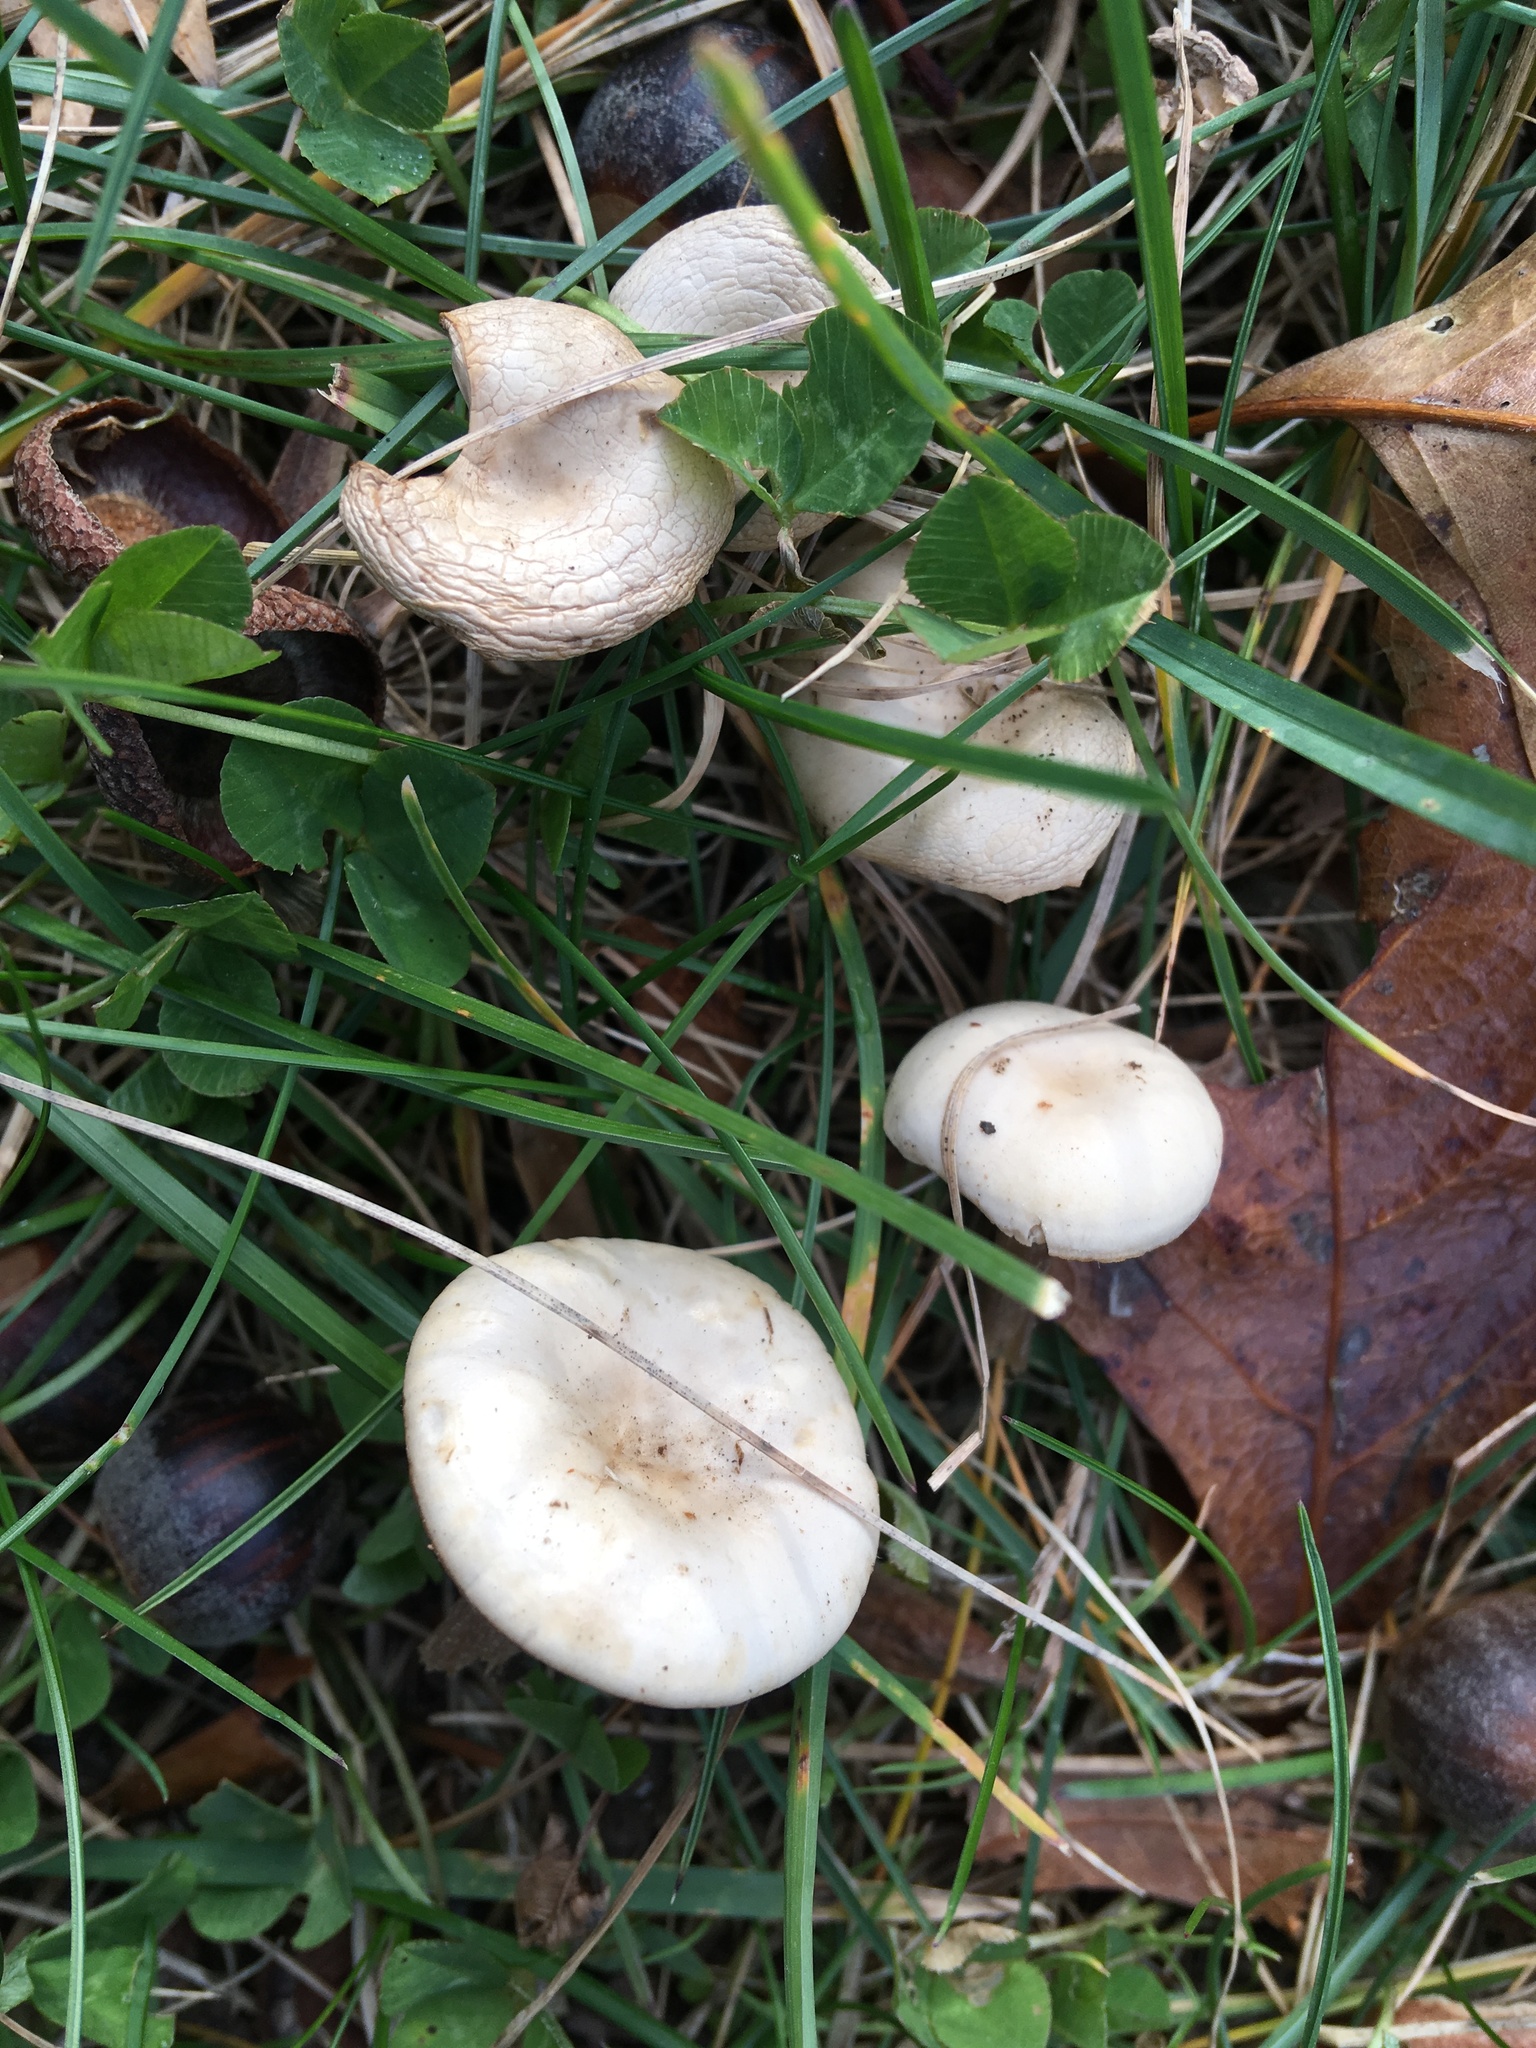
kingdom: Fungi
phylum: Basidiomycota
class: Agaricomycetes
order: Agaricales
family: Tricholomataceae
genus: Collybia
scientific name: Collybia
